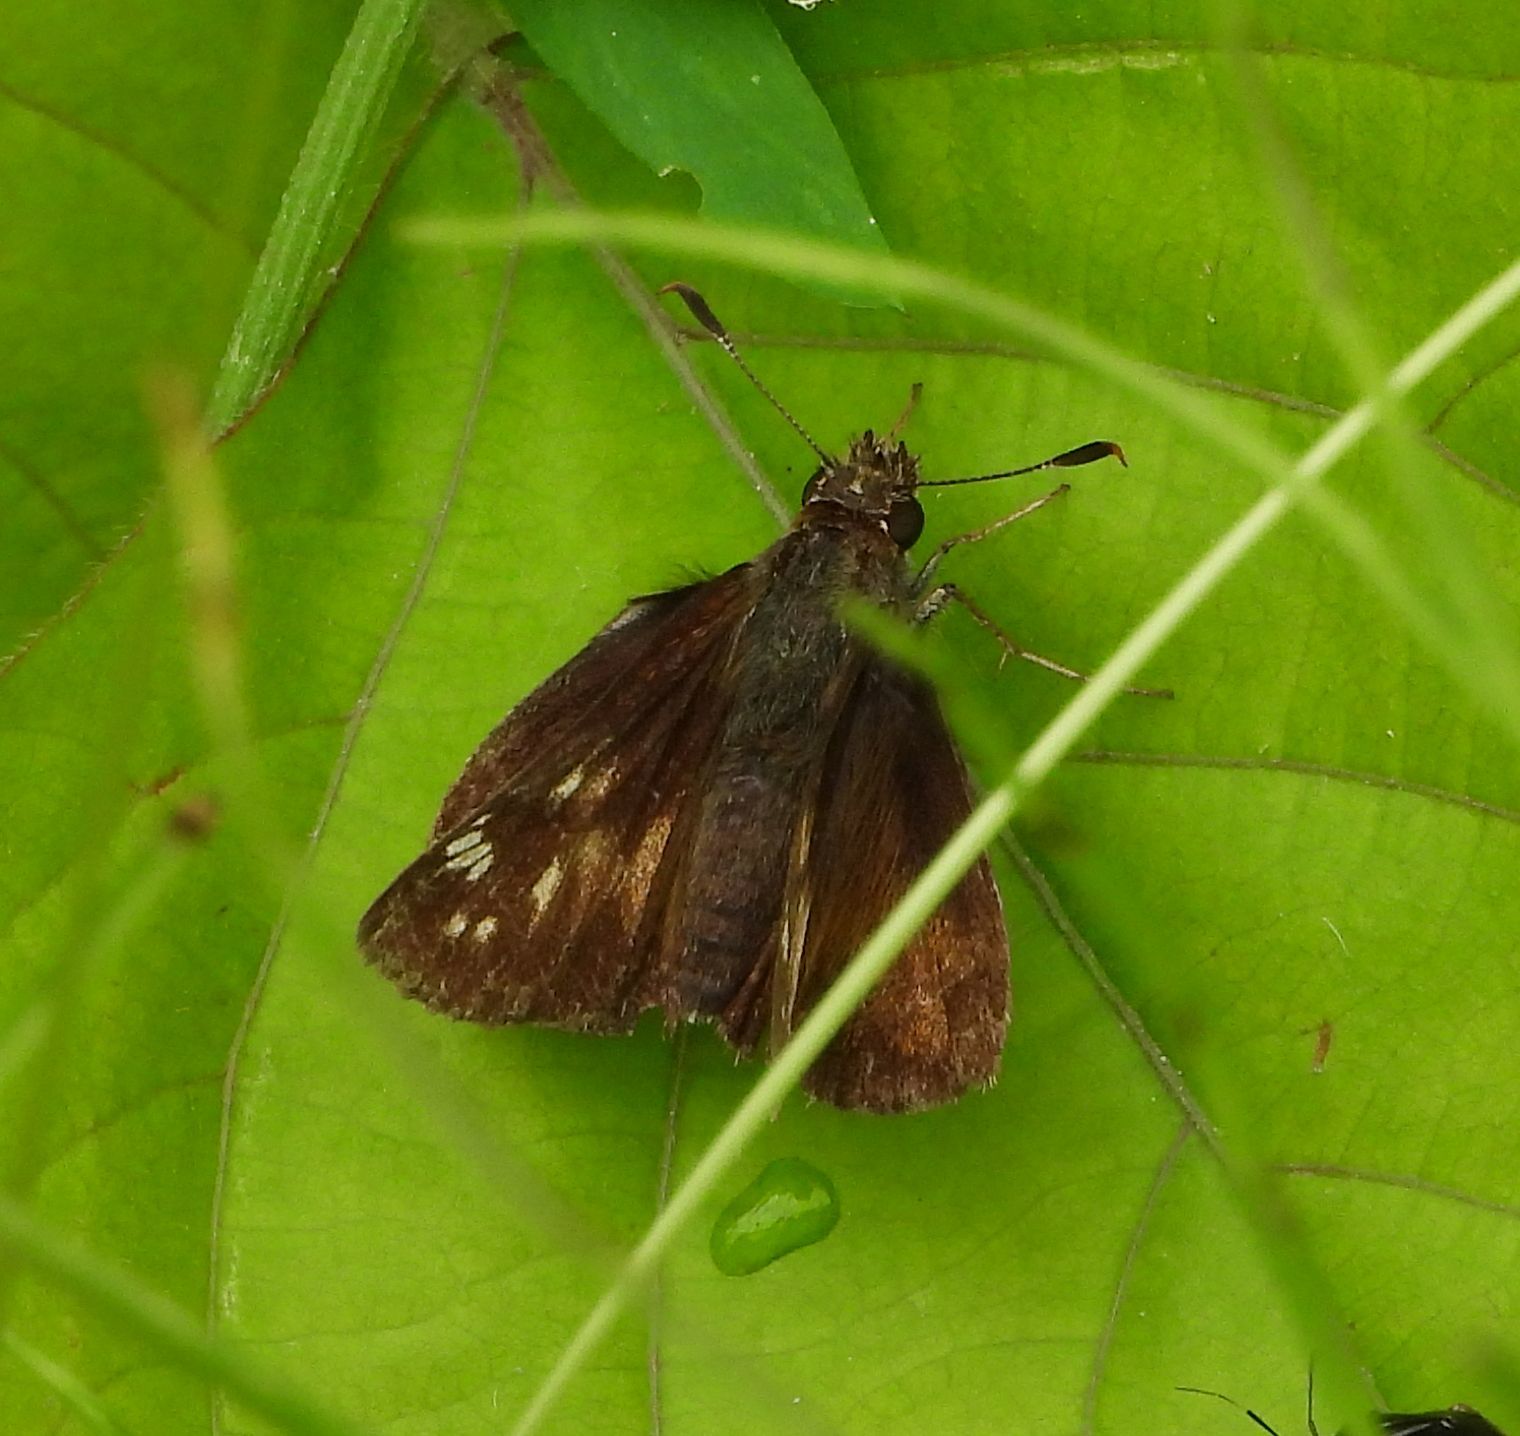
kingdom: Animalia
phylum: Arthropoda
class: Insecta
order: Lepidoptera
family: Hesperiidae
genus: Lon
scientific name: Lon hobomok
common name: Hobomok skipper
